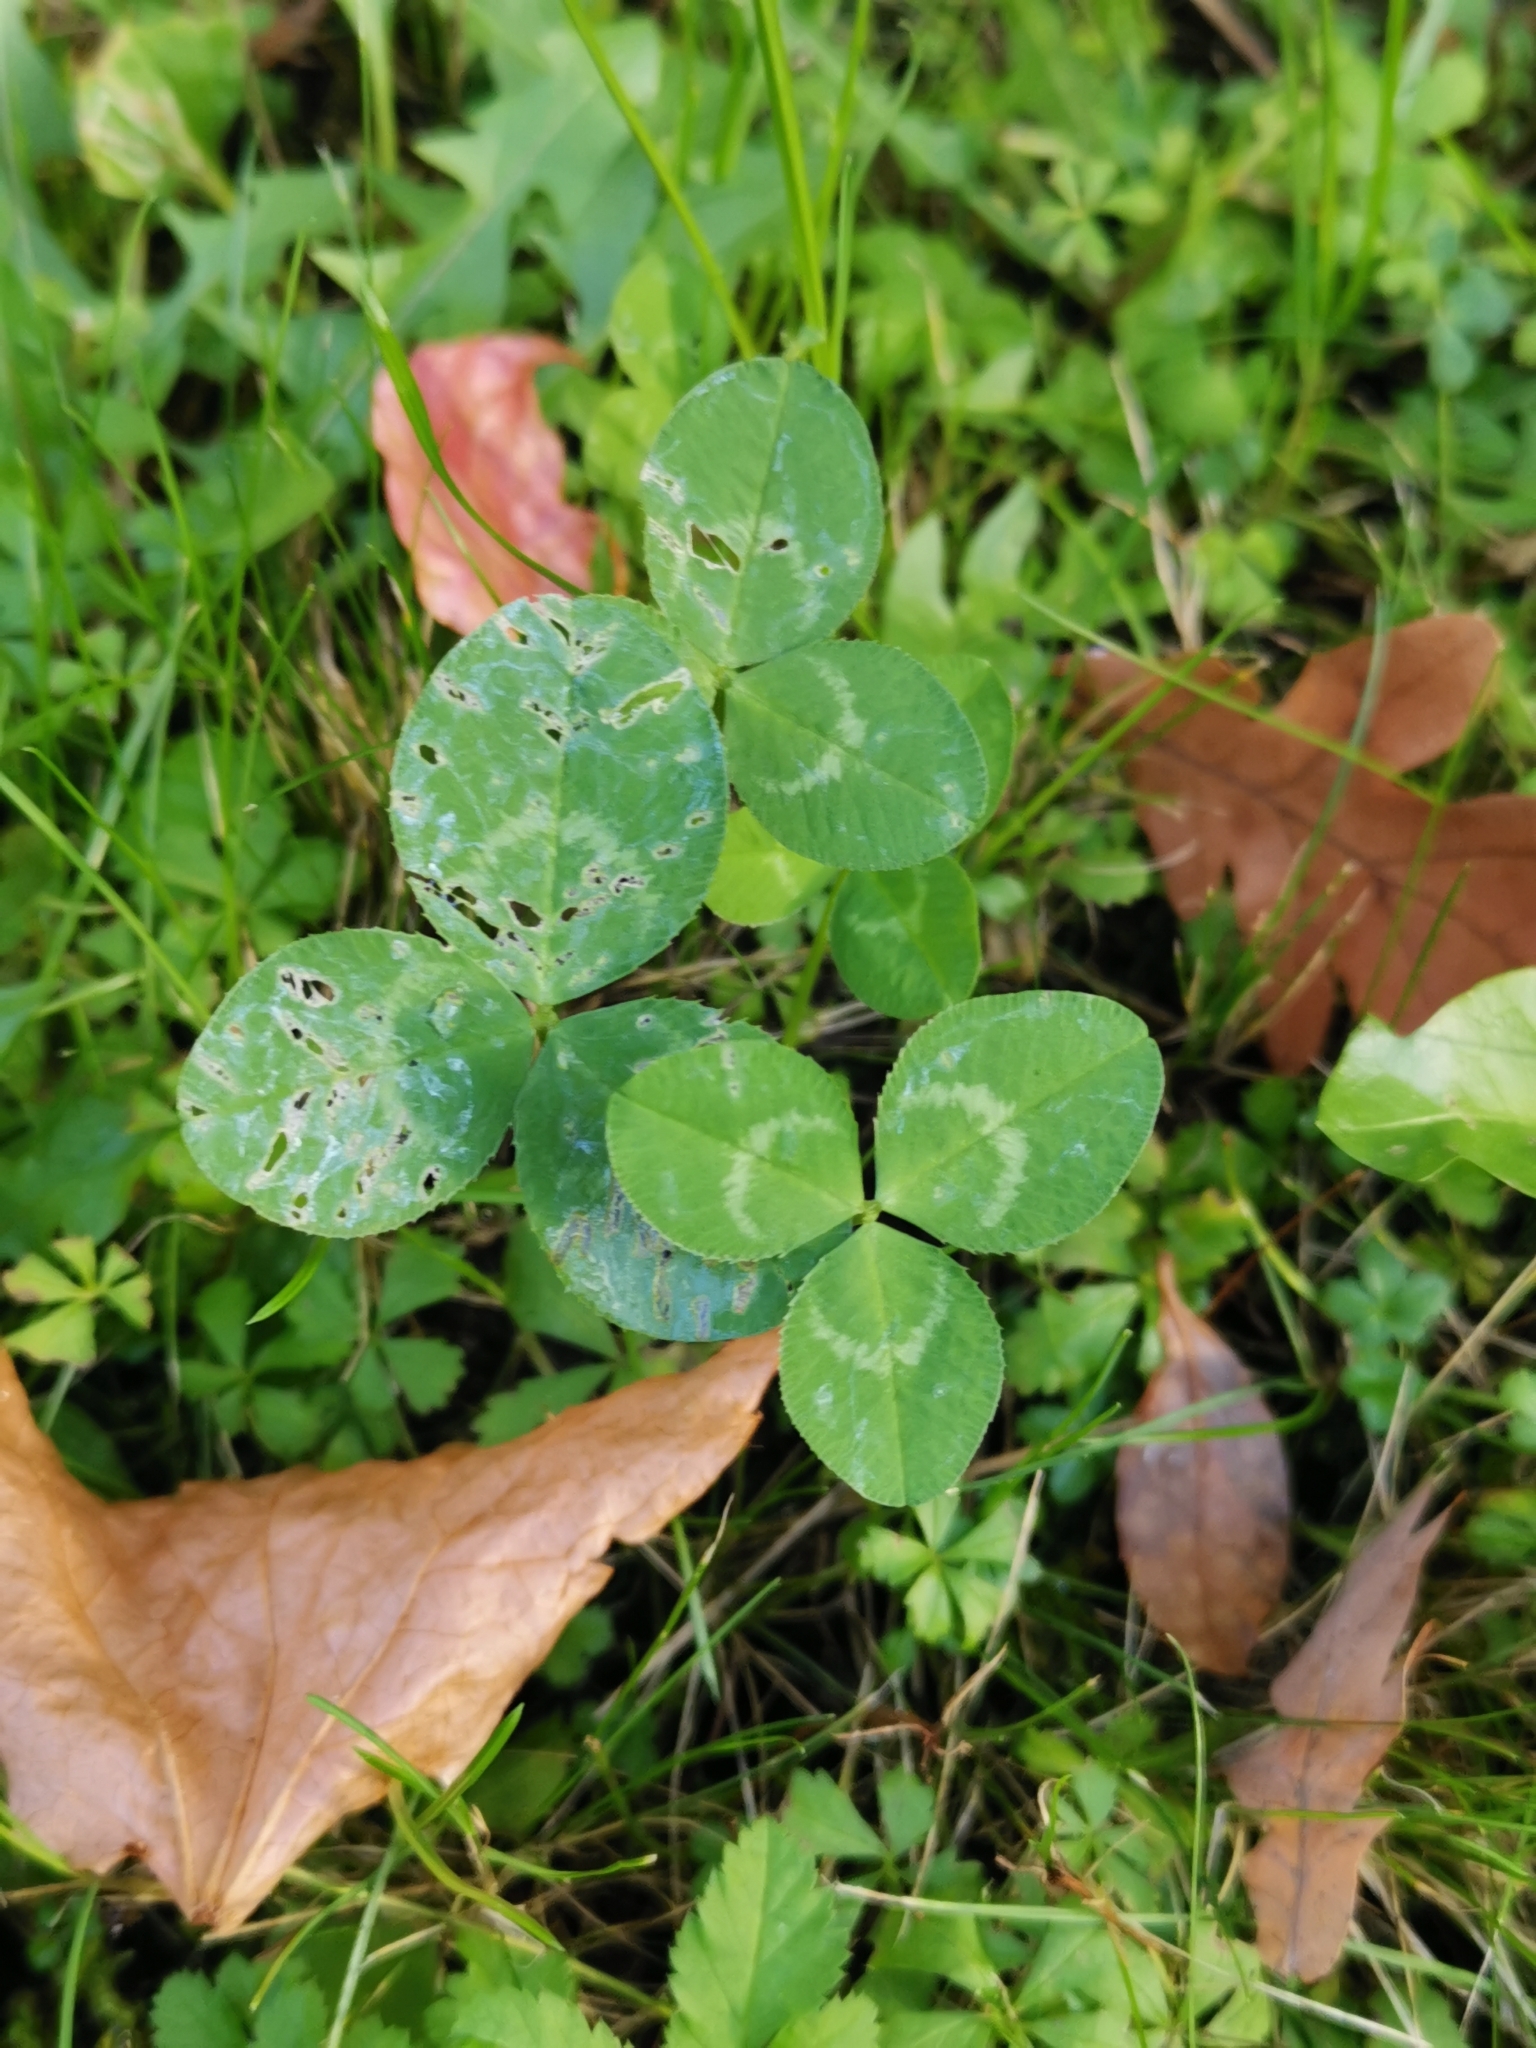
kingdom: Plantae
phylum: Tracheophyta
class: Magnoliopsida
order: Fabales
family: Fabaceae
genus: Trifolium
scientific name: Trifolium repens
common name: White clover
